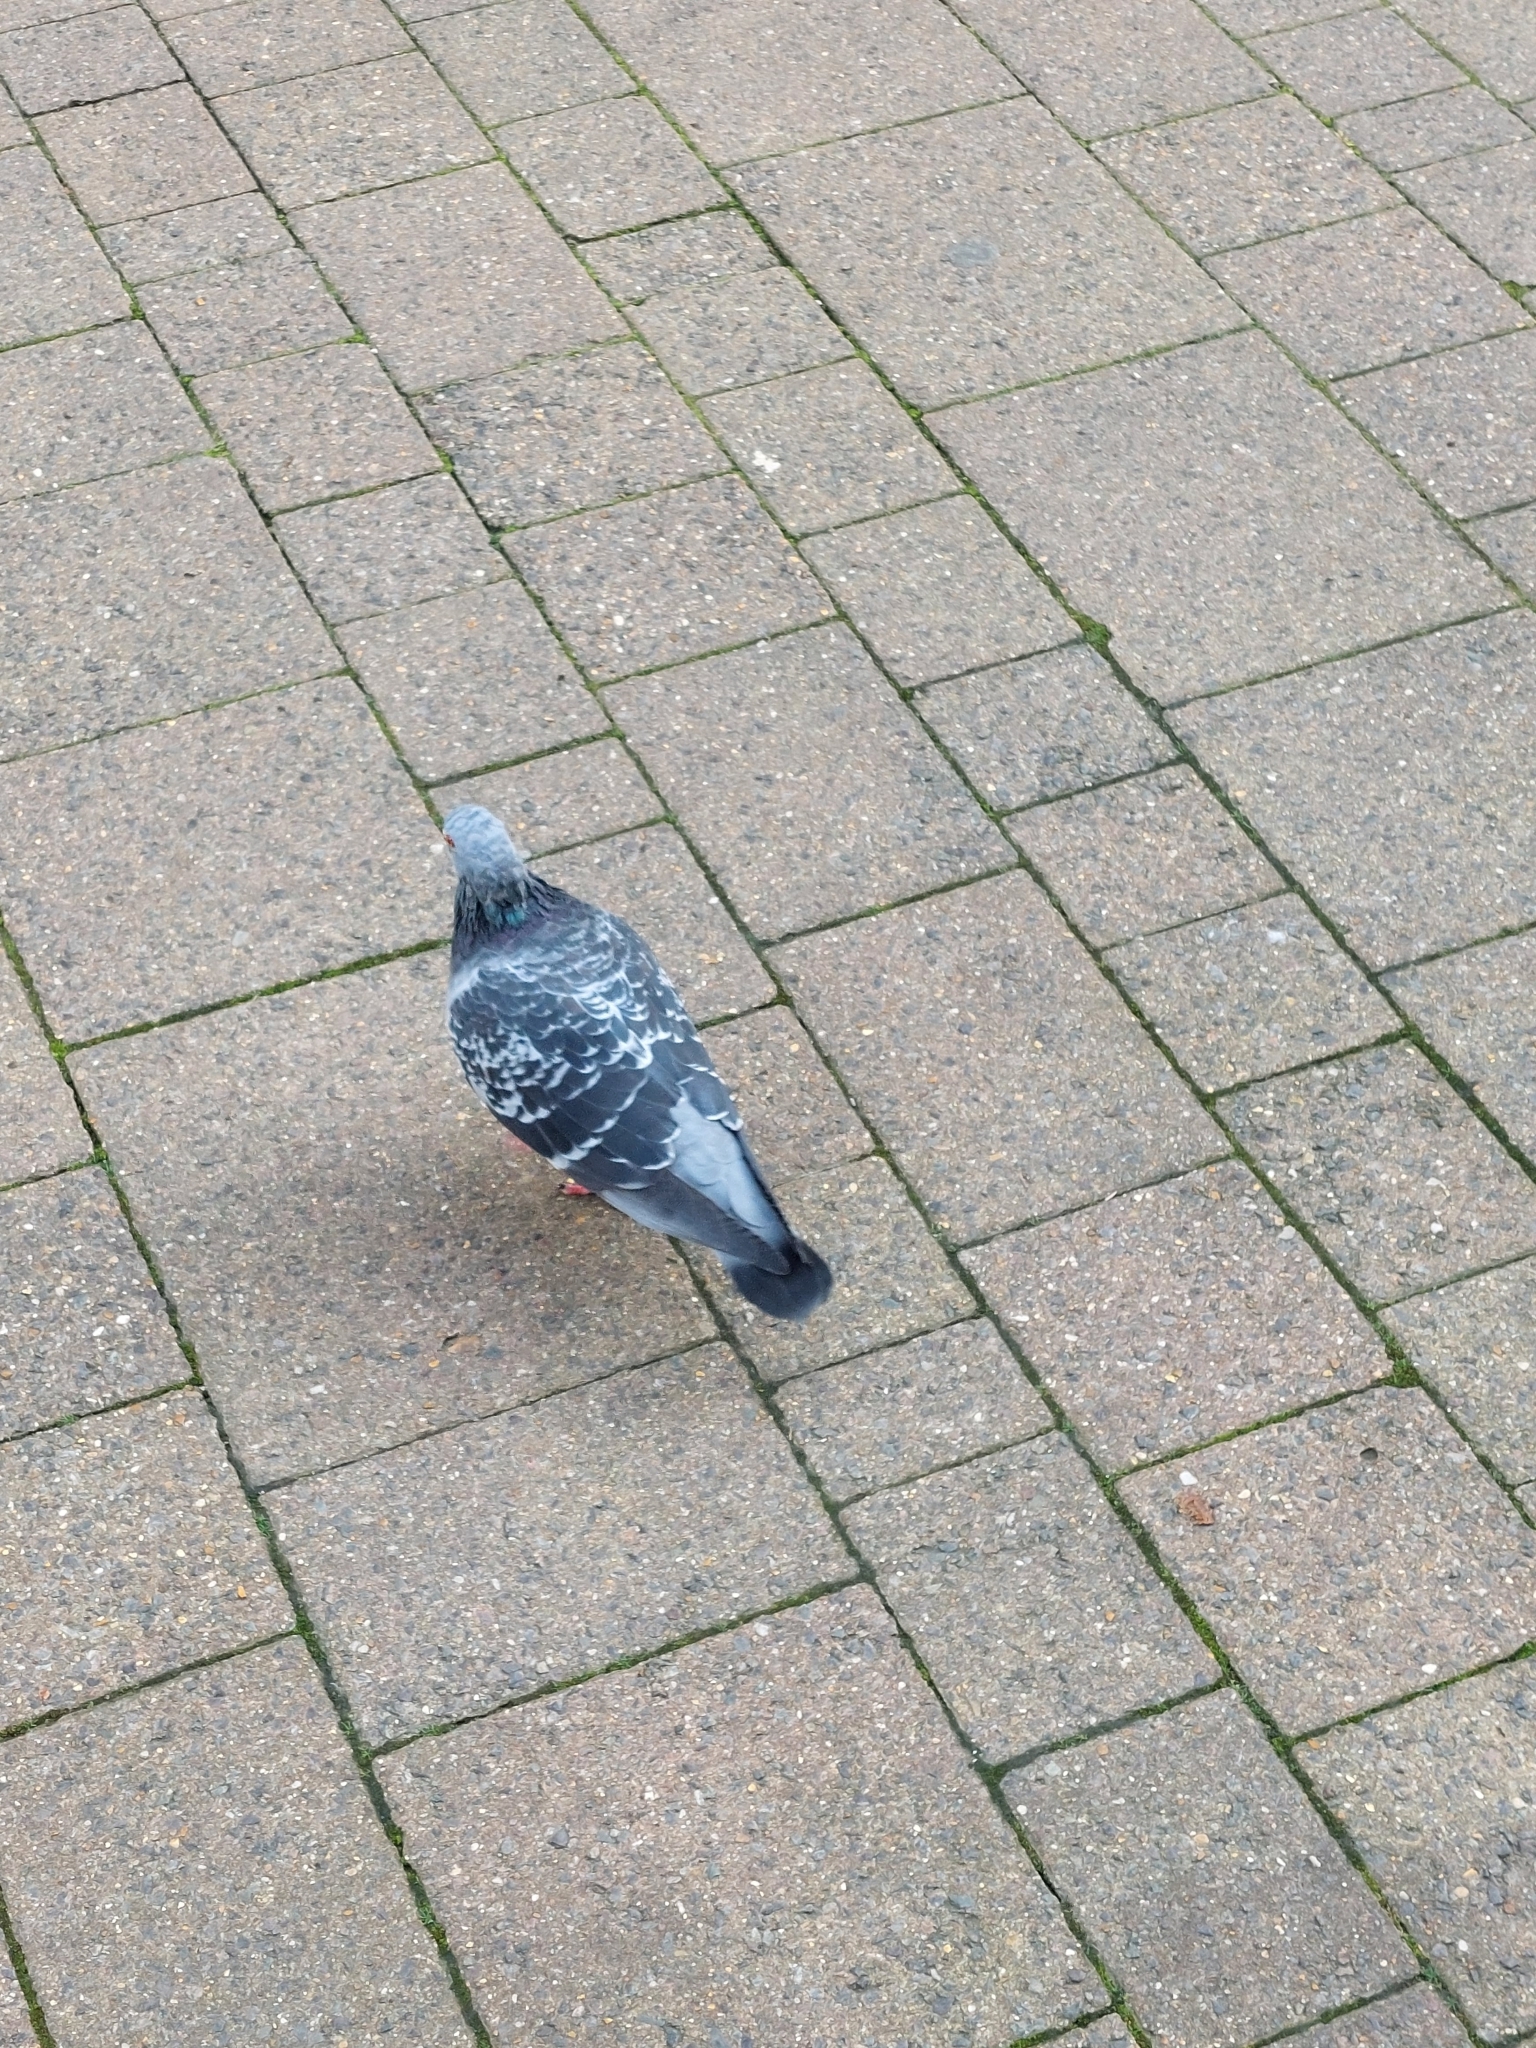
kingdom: Animalia
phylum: Chordata
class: Aves
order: Columbiformes
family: Columbidae
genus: Columba
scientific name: Columba livia
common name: Rock pigeon
